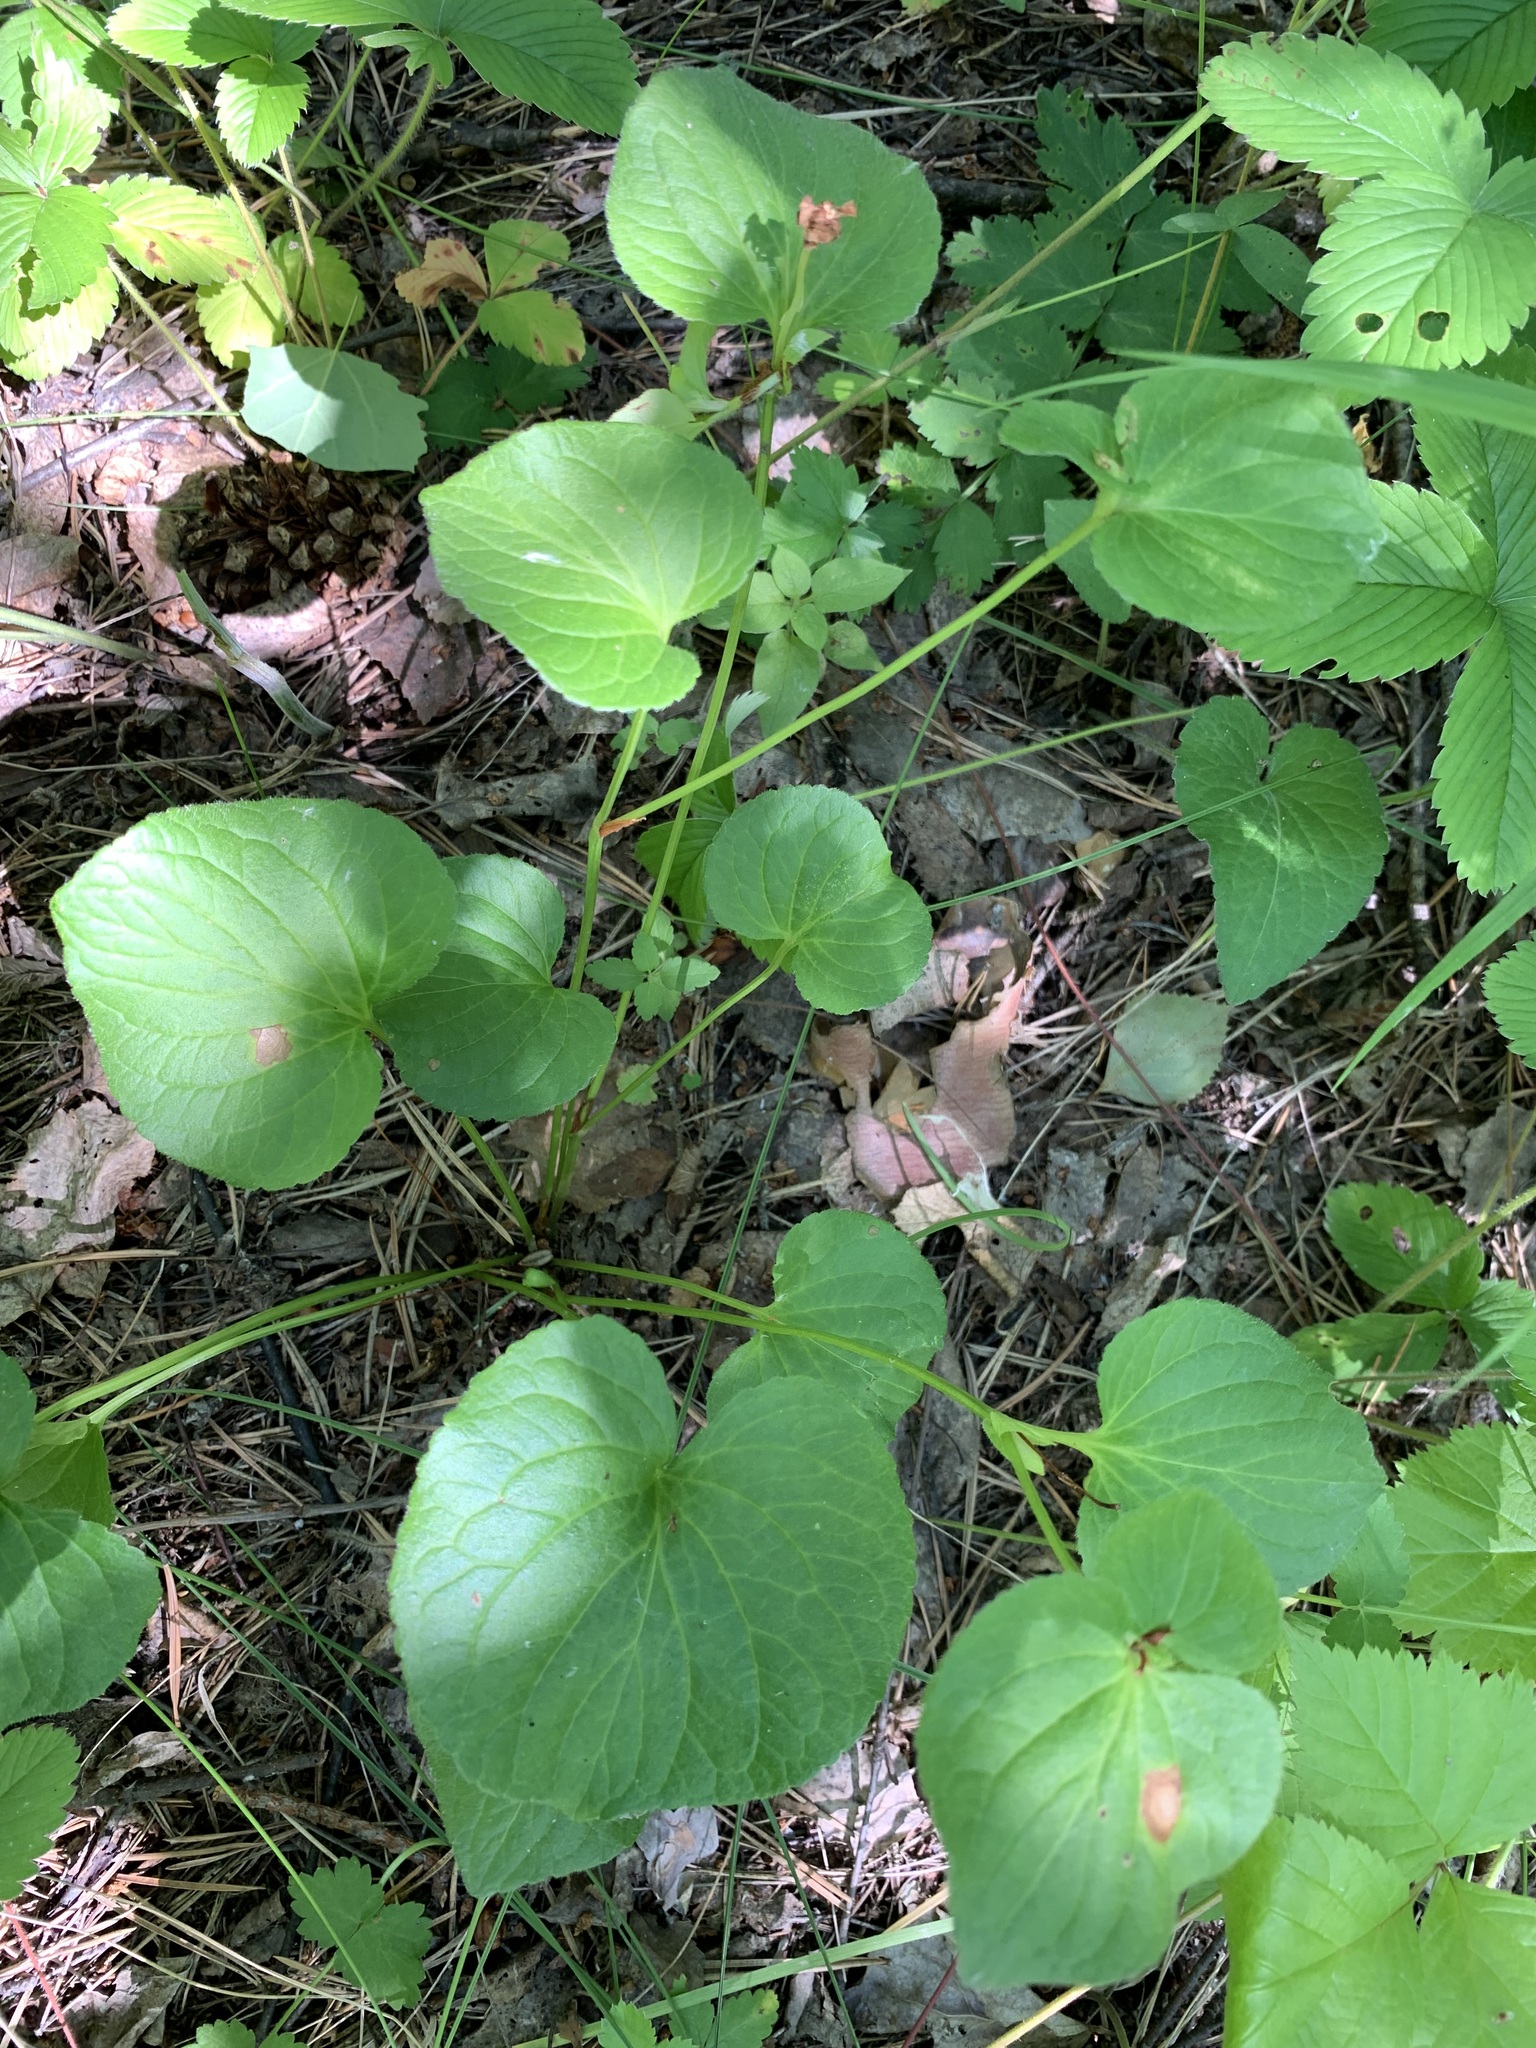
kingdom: Plantae
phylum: Tracheophyta
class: Magnoliopsida
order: Malpighiales
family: Violaceae
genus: Viola
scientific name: Viola mirabilis
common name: Wonder violet
